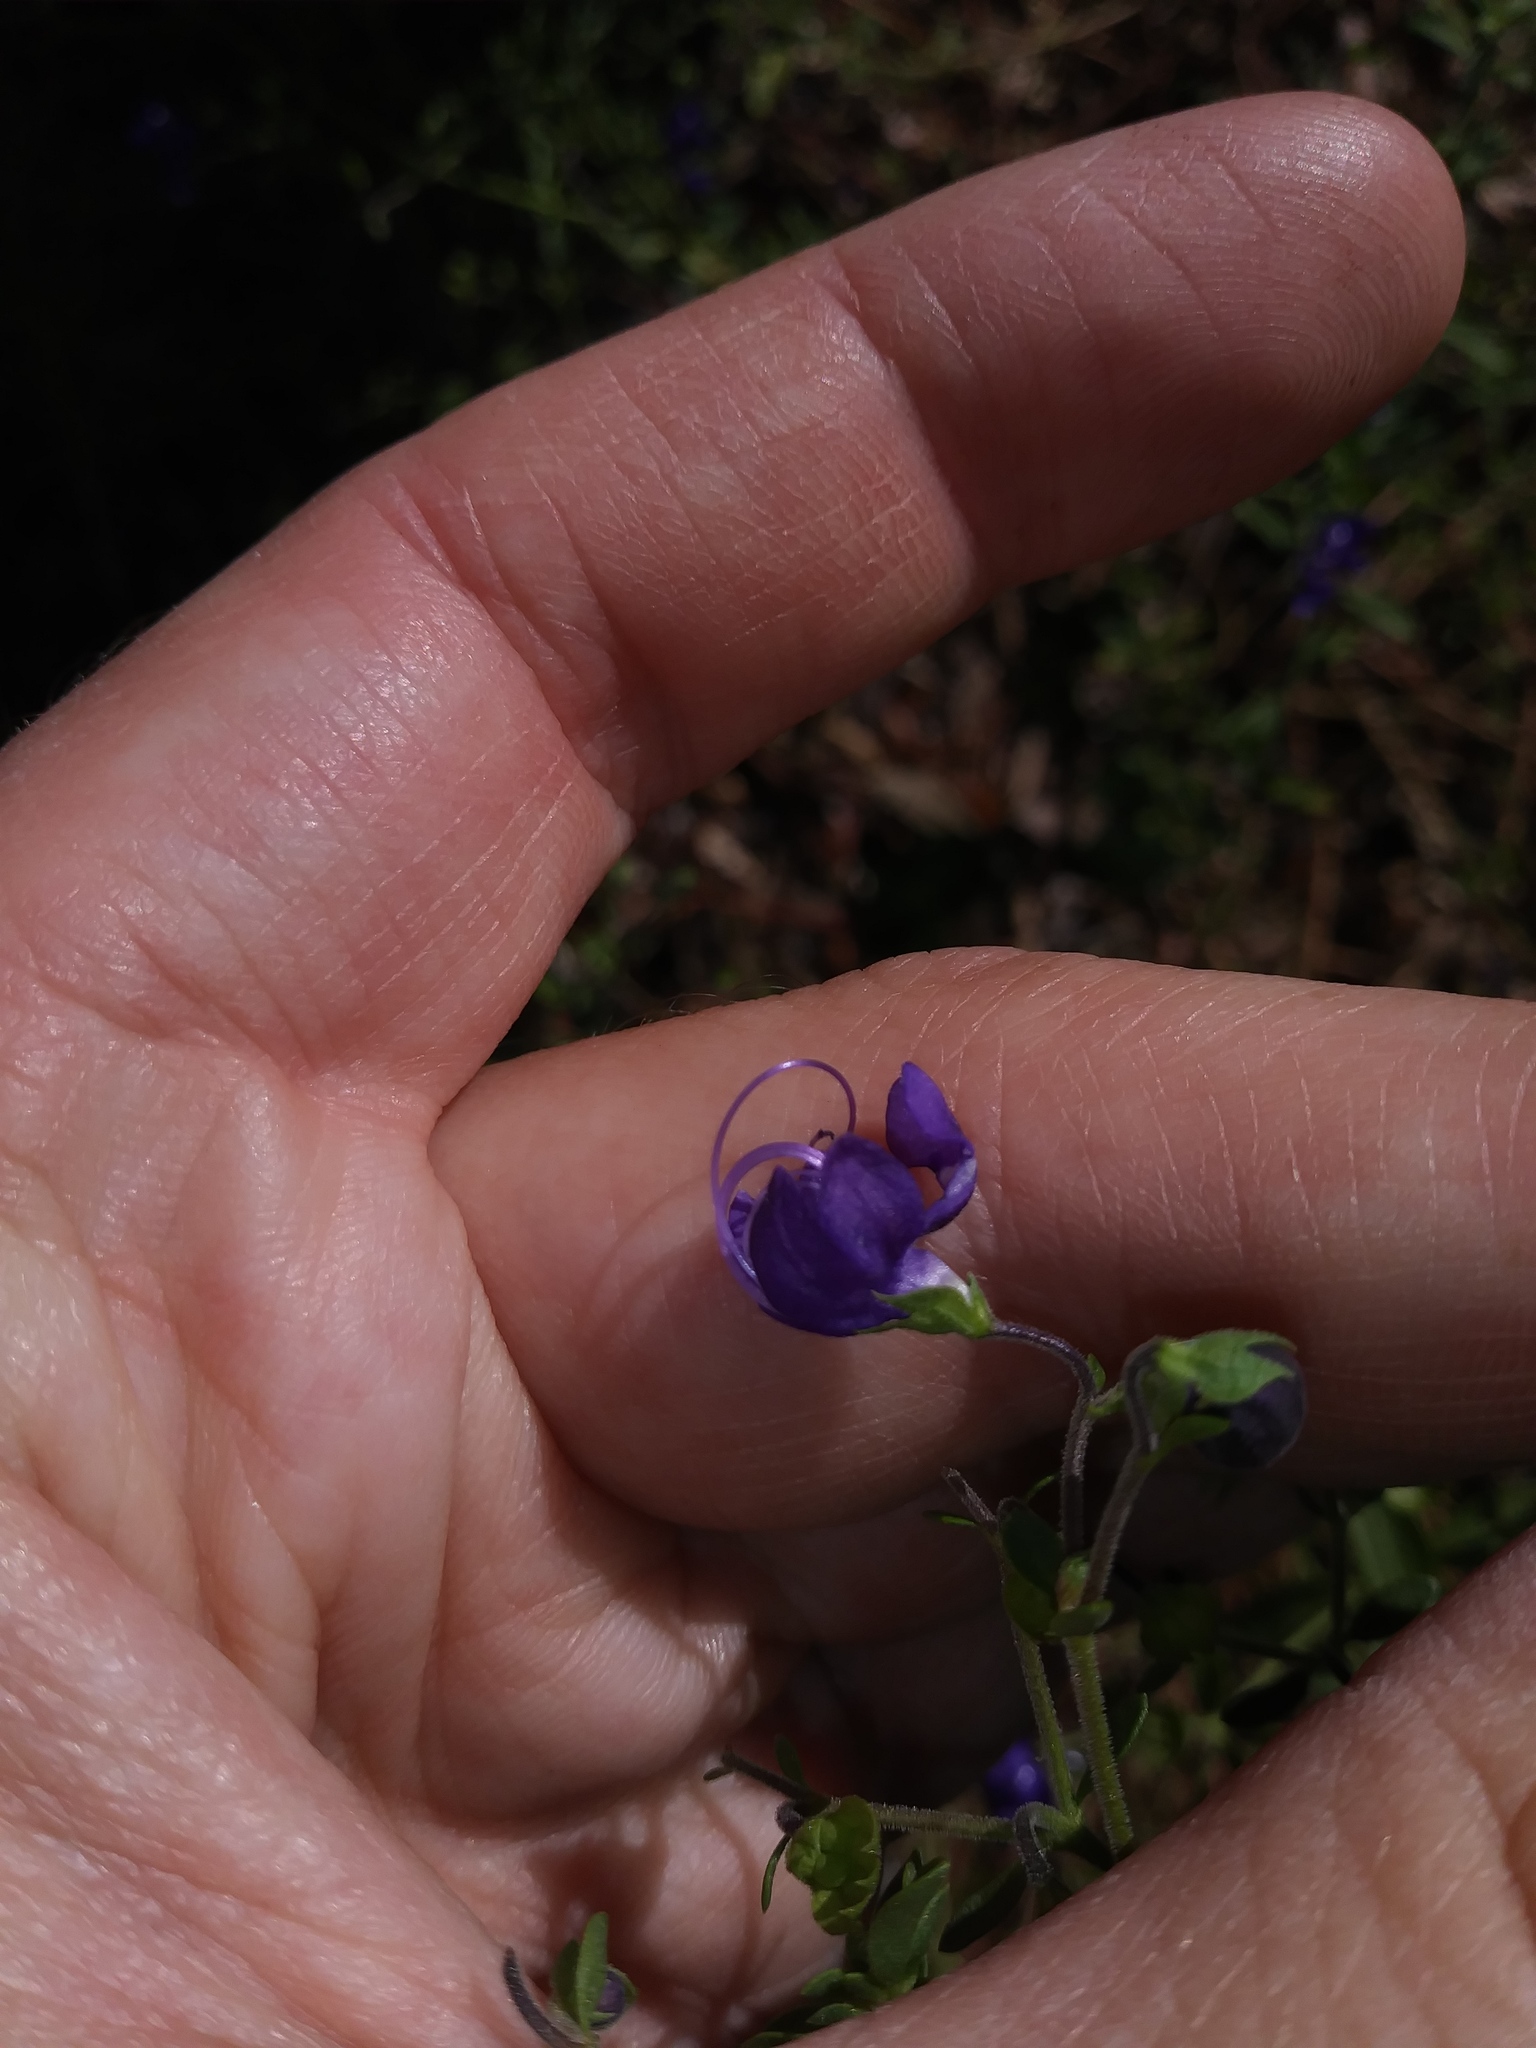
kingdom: Plantae
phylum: Tracheophyta
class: Magnoliopsida
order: Lamiales
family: Lamiaceae
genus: Trichostema
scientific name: Trichostema bridgesii-orzellii
